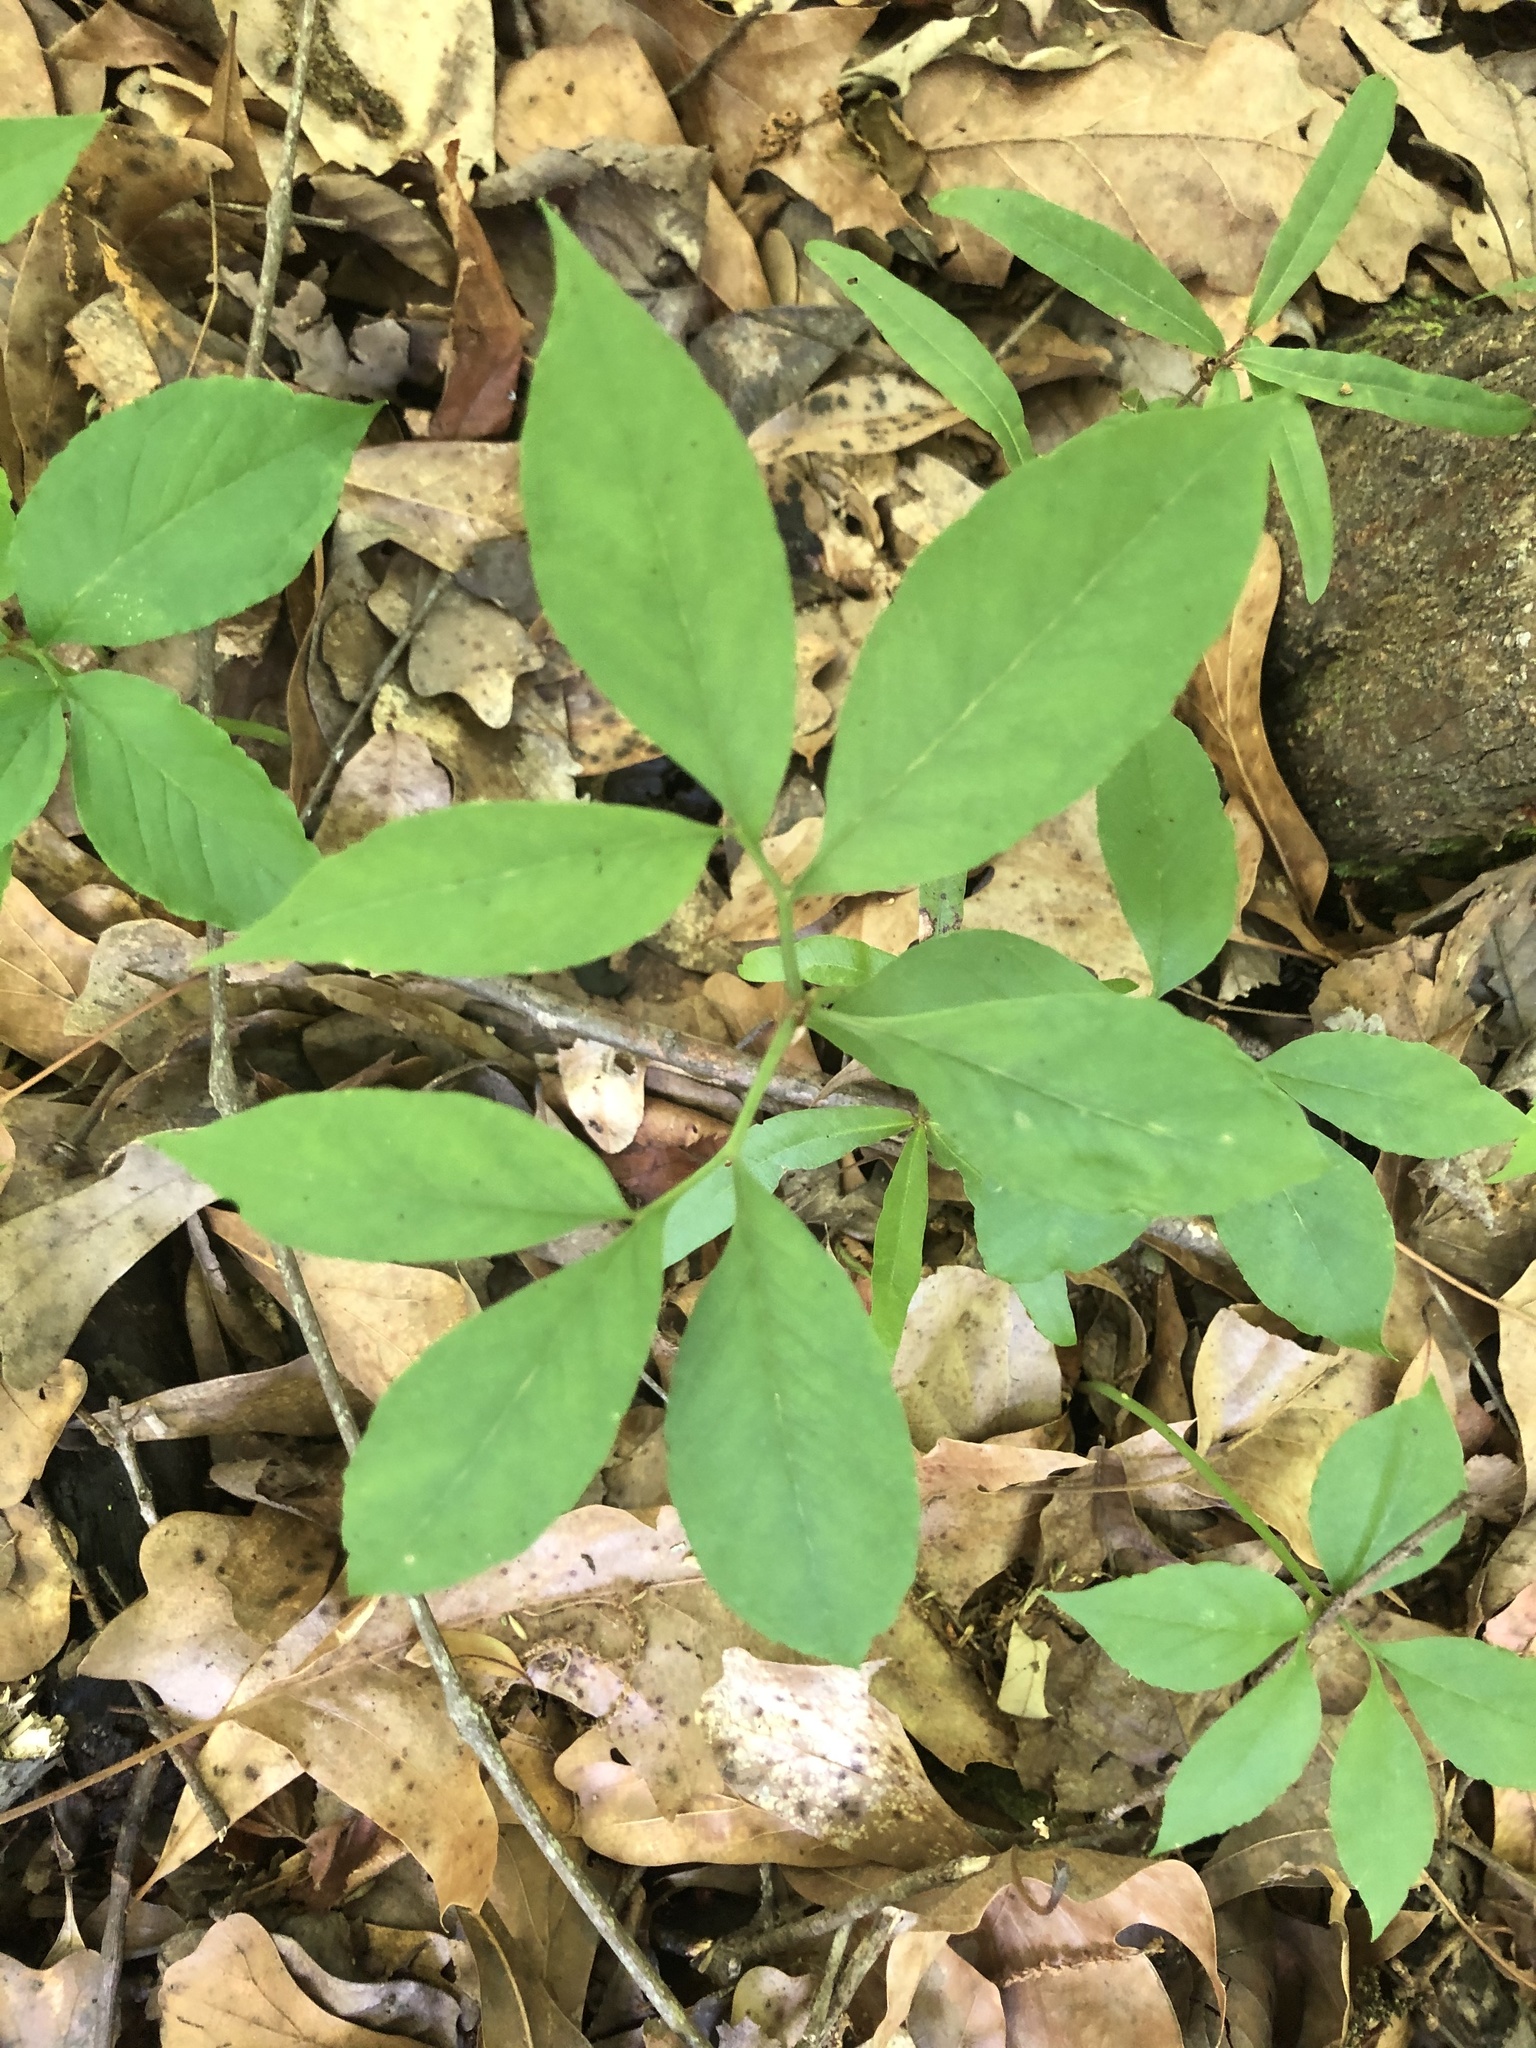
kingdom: Plantae
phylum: Tracheophyta
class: Liliopsida
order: Alismatales
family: Araceae
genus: Arisaema
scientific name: Arisaema dracontium
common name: Dragon-arum
